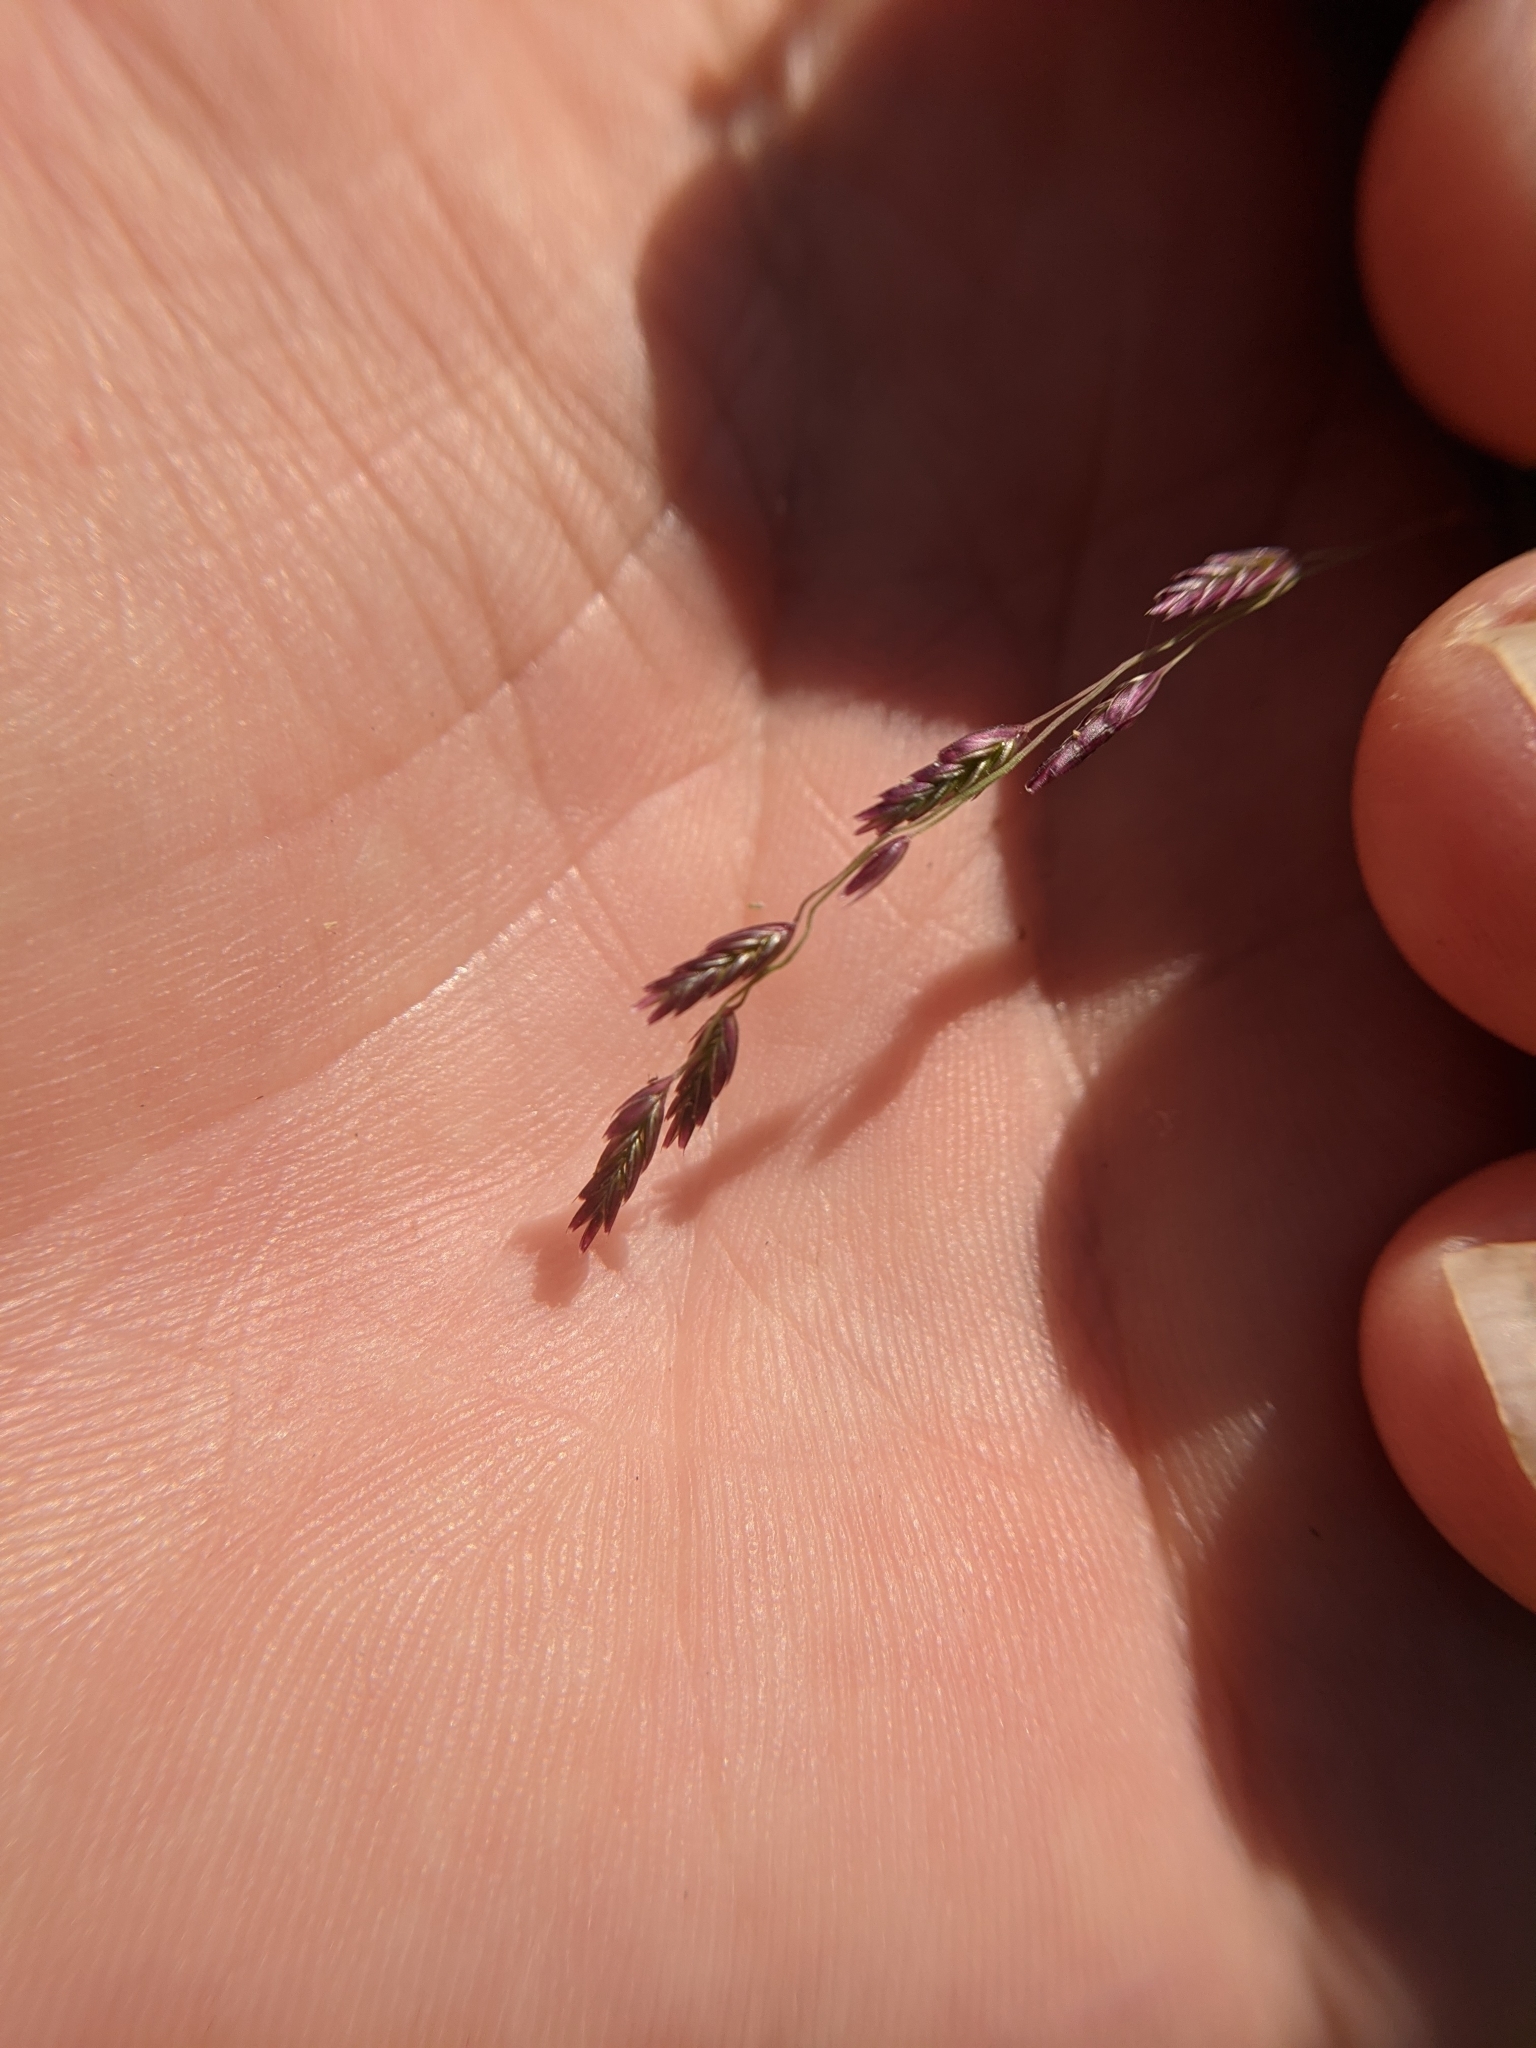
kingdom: Plantae
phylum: Tracheophyta
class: Liliopsida
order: Poales
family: Poaceae
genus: Triplasiella
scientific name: Triplasiella eragrostoides
